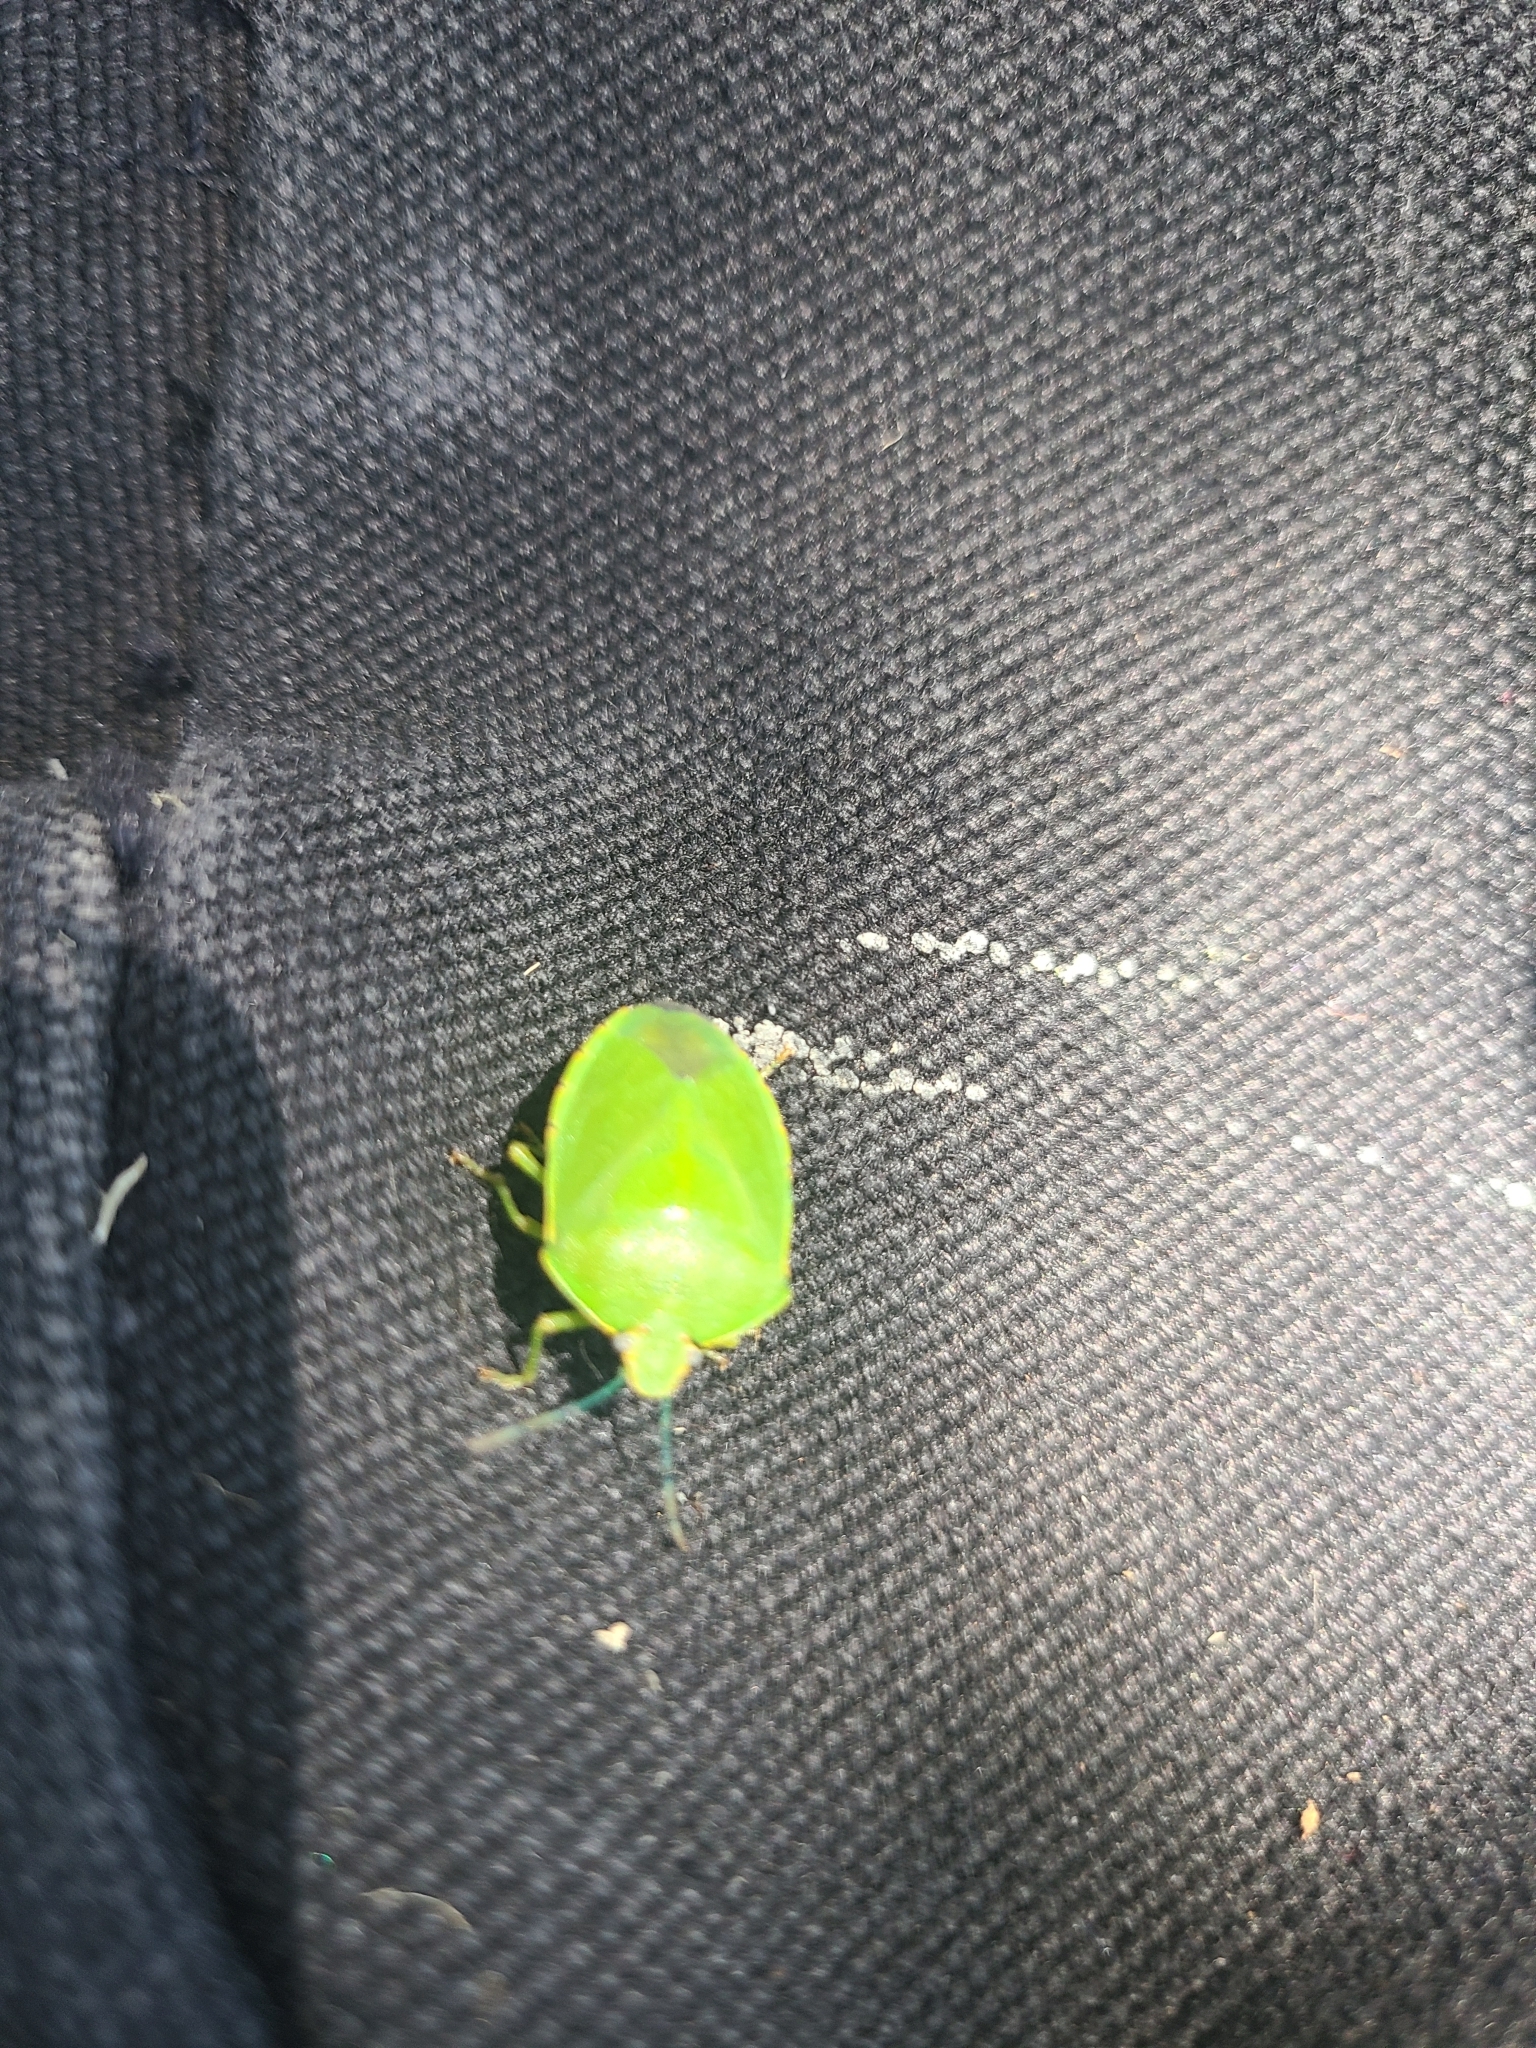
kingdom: Animalia
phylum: Arthropoda
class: Insecta
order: Hemiptera
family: Pentatomidae
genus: Chinavia
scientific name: Chinavia hilaris
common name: Green stink bug
